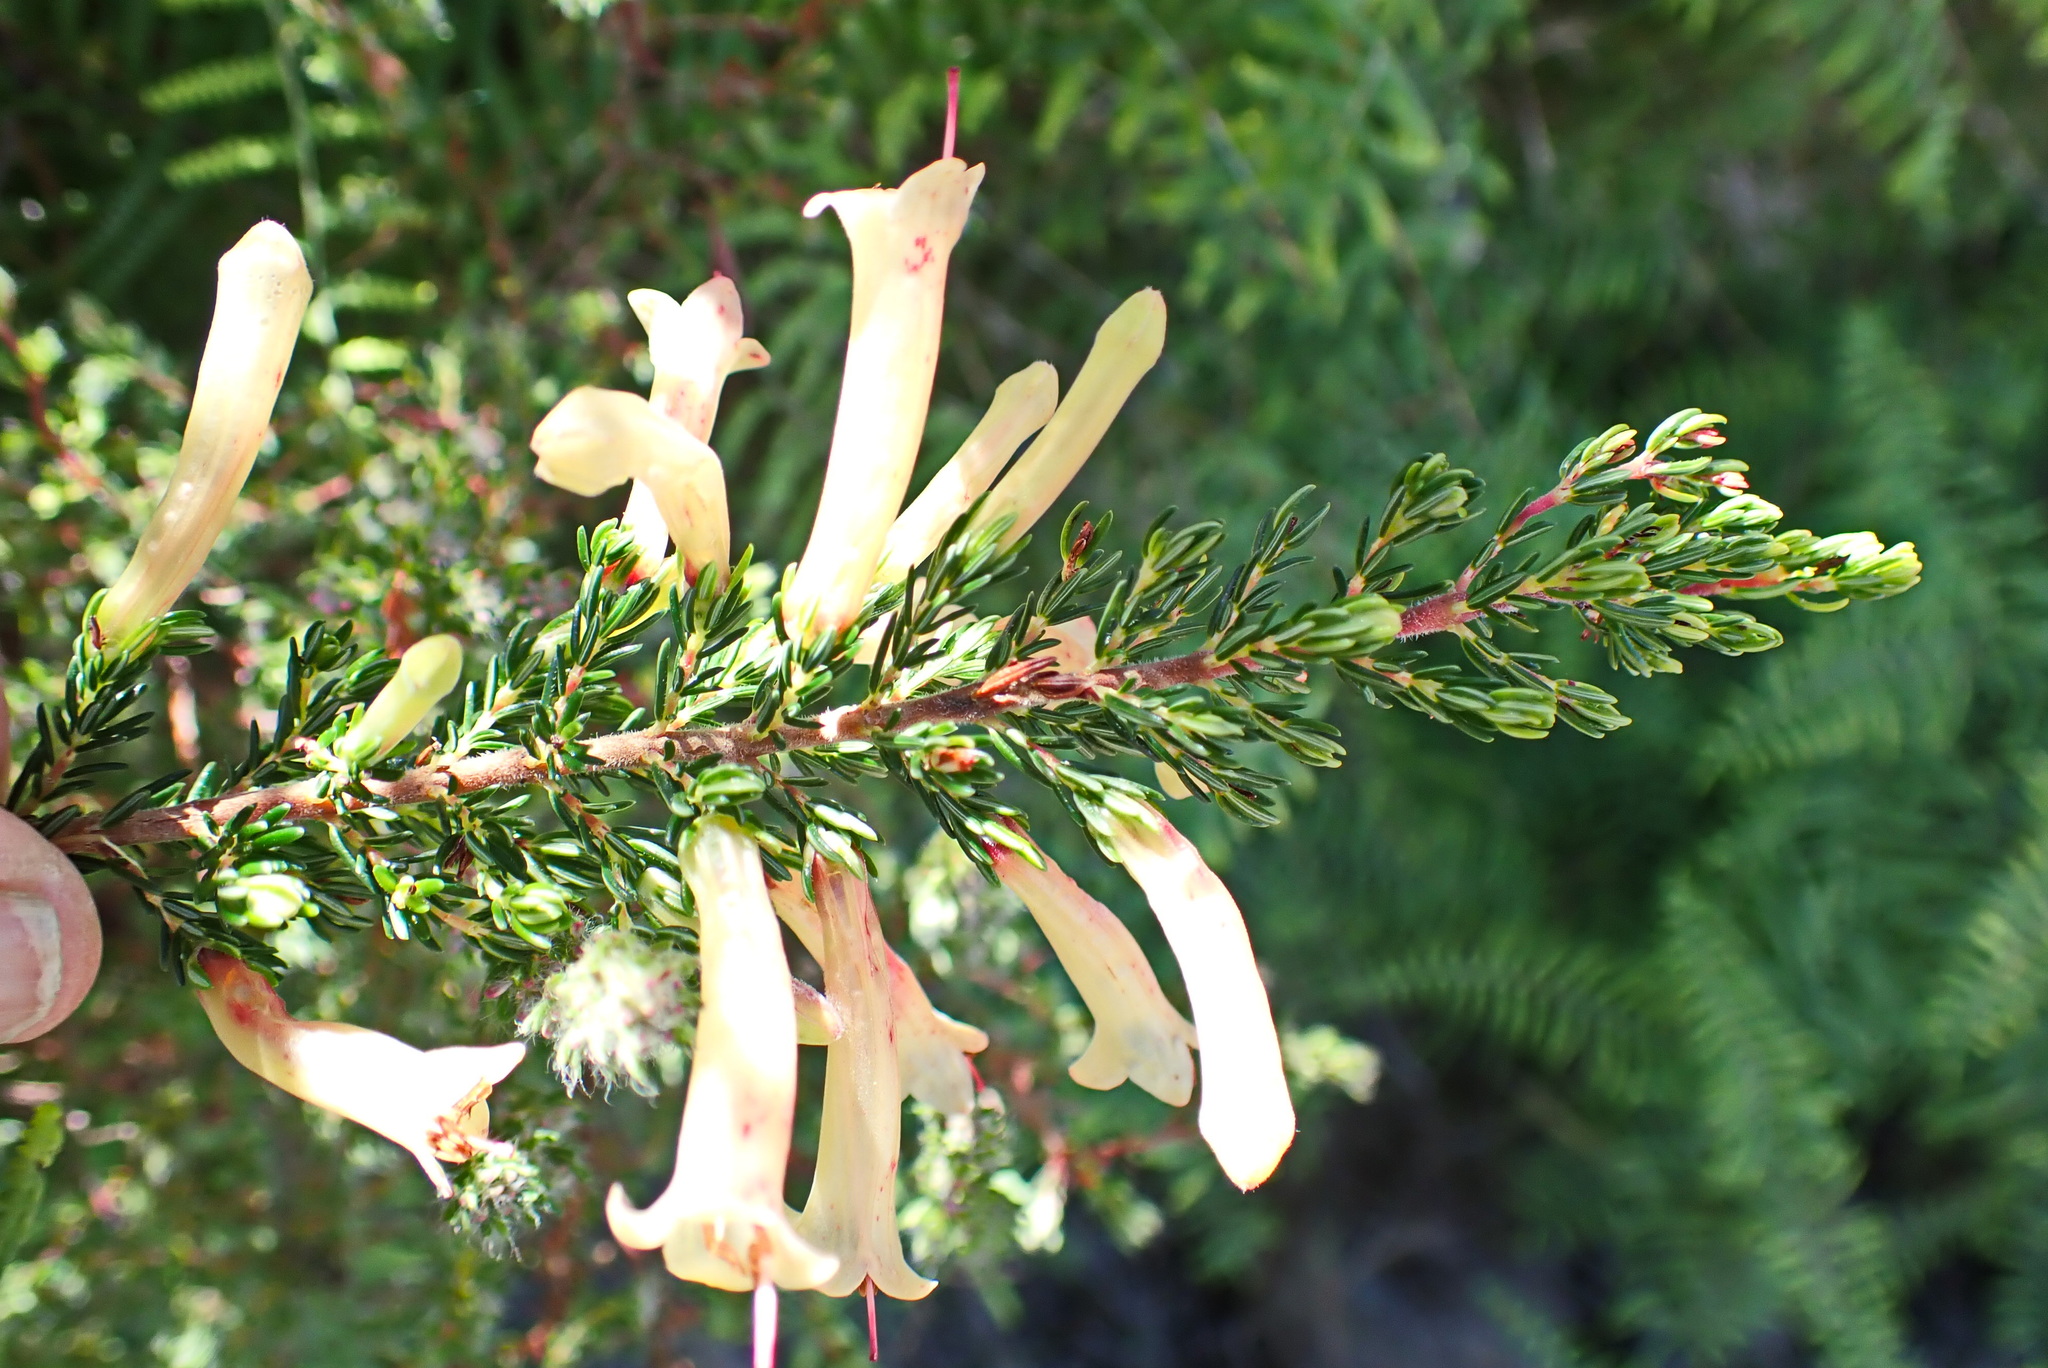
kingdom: Plantae
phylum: Tracheophyta
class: Magnoliopsida
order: Ericales
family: Ericaceae
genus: Erica
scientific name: Erica curviflora
